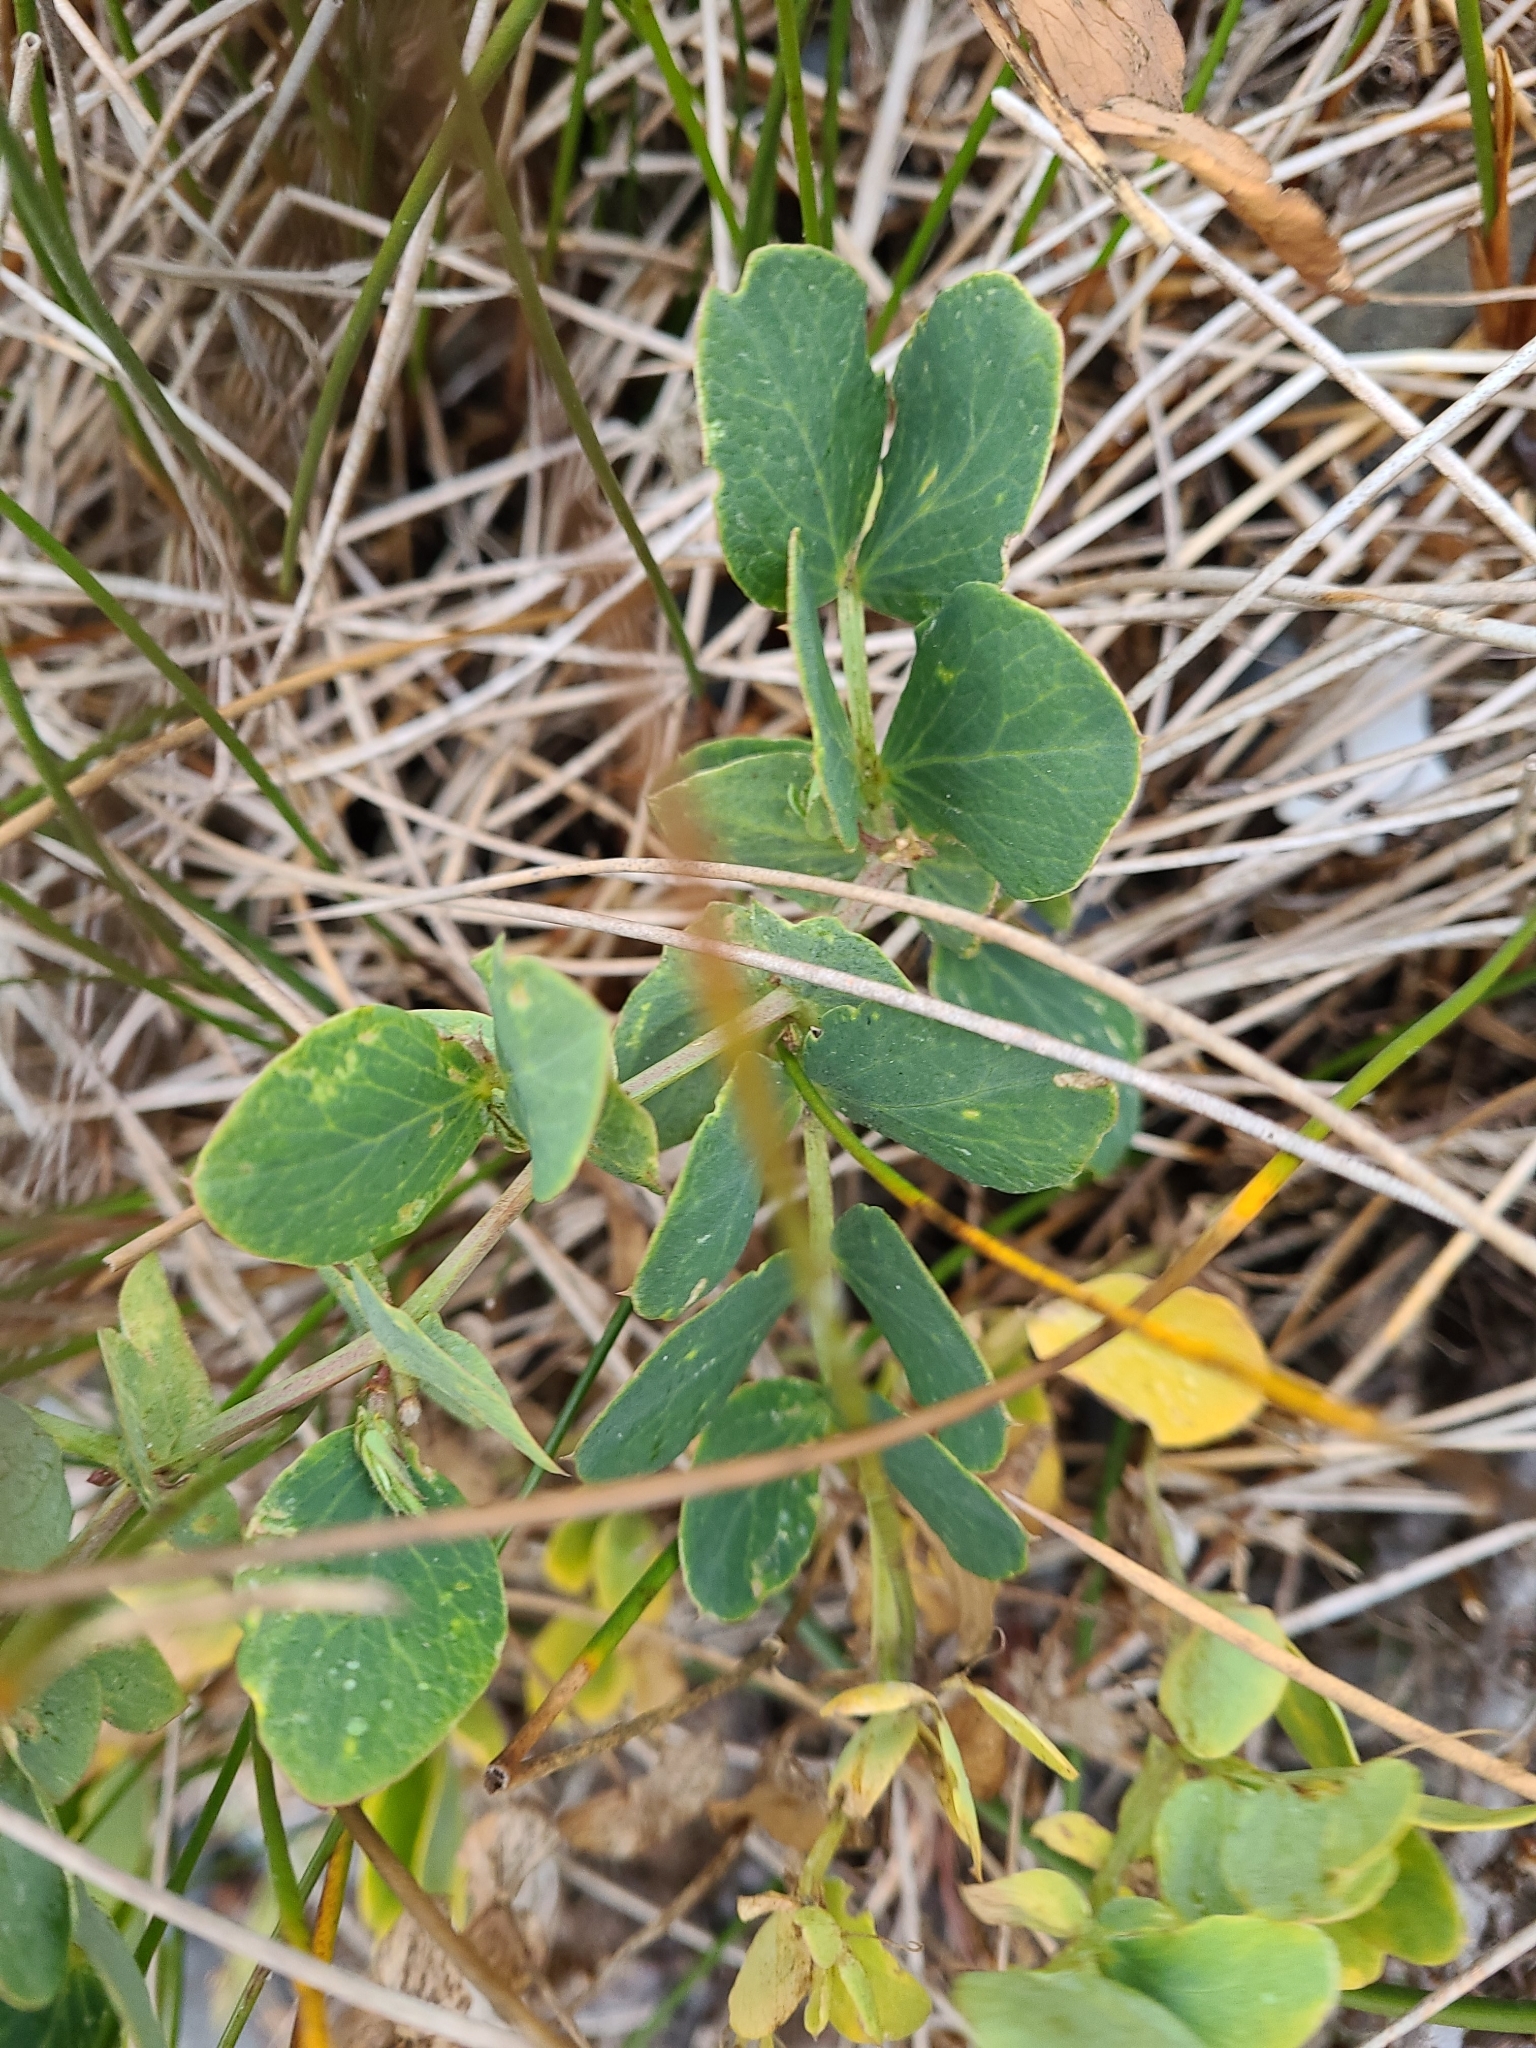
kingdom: Plantae
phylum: Tracheophyta
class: Magnoliopsida
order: Fabales
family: Fabaceae
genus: Lathyrus
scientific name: Lathyrus japonicus
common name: Sea pea
